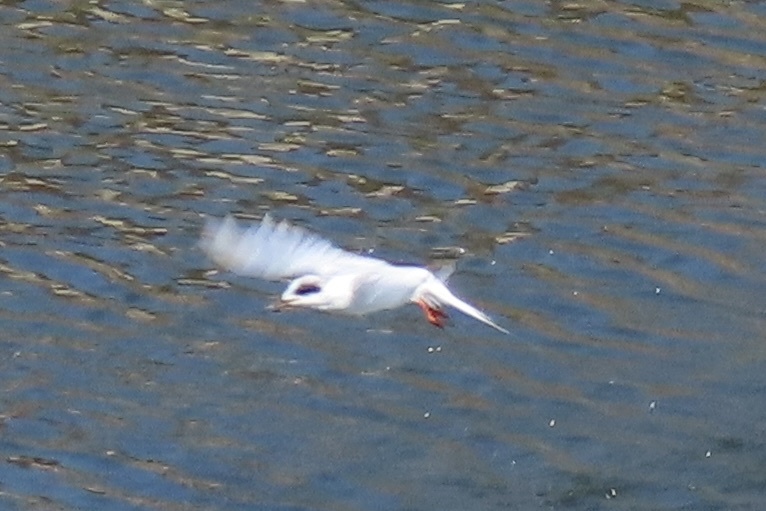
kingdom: Animalia
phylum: Chordata
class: Aves
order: Charadriiformes
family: Laridae
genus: Sterna
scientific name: Sterna forsteri
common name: Forster's tern
